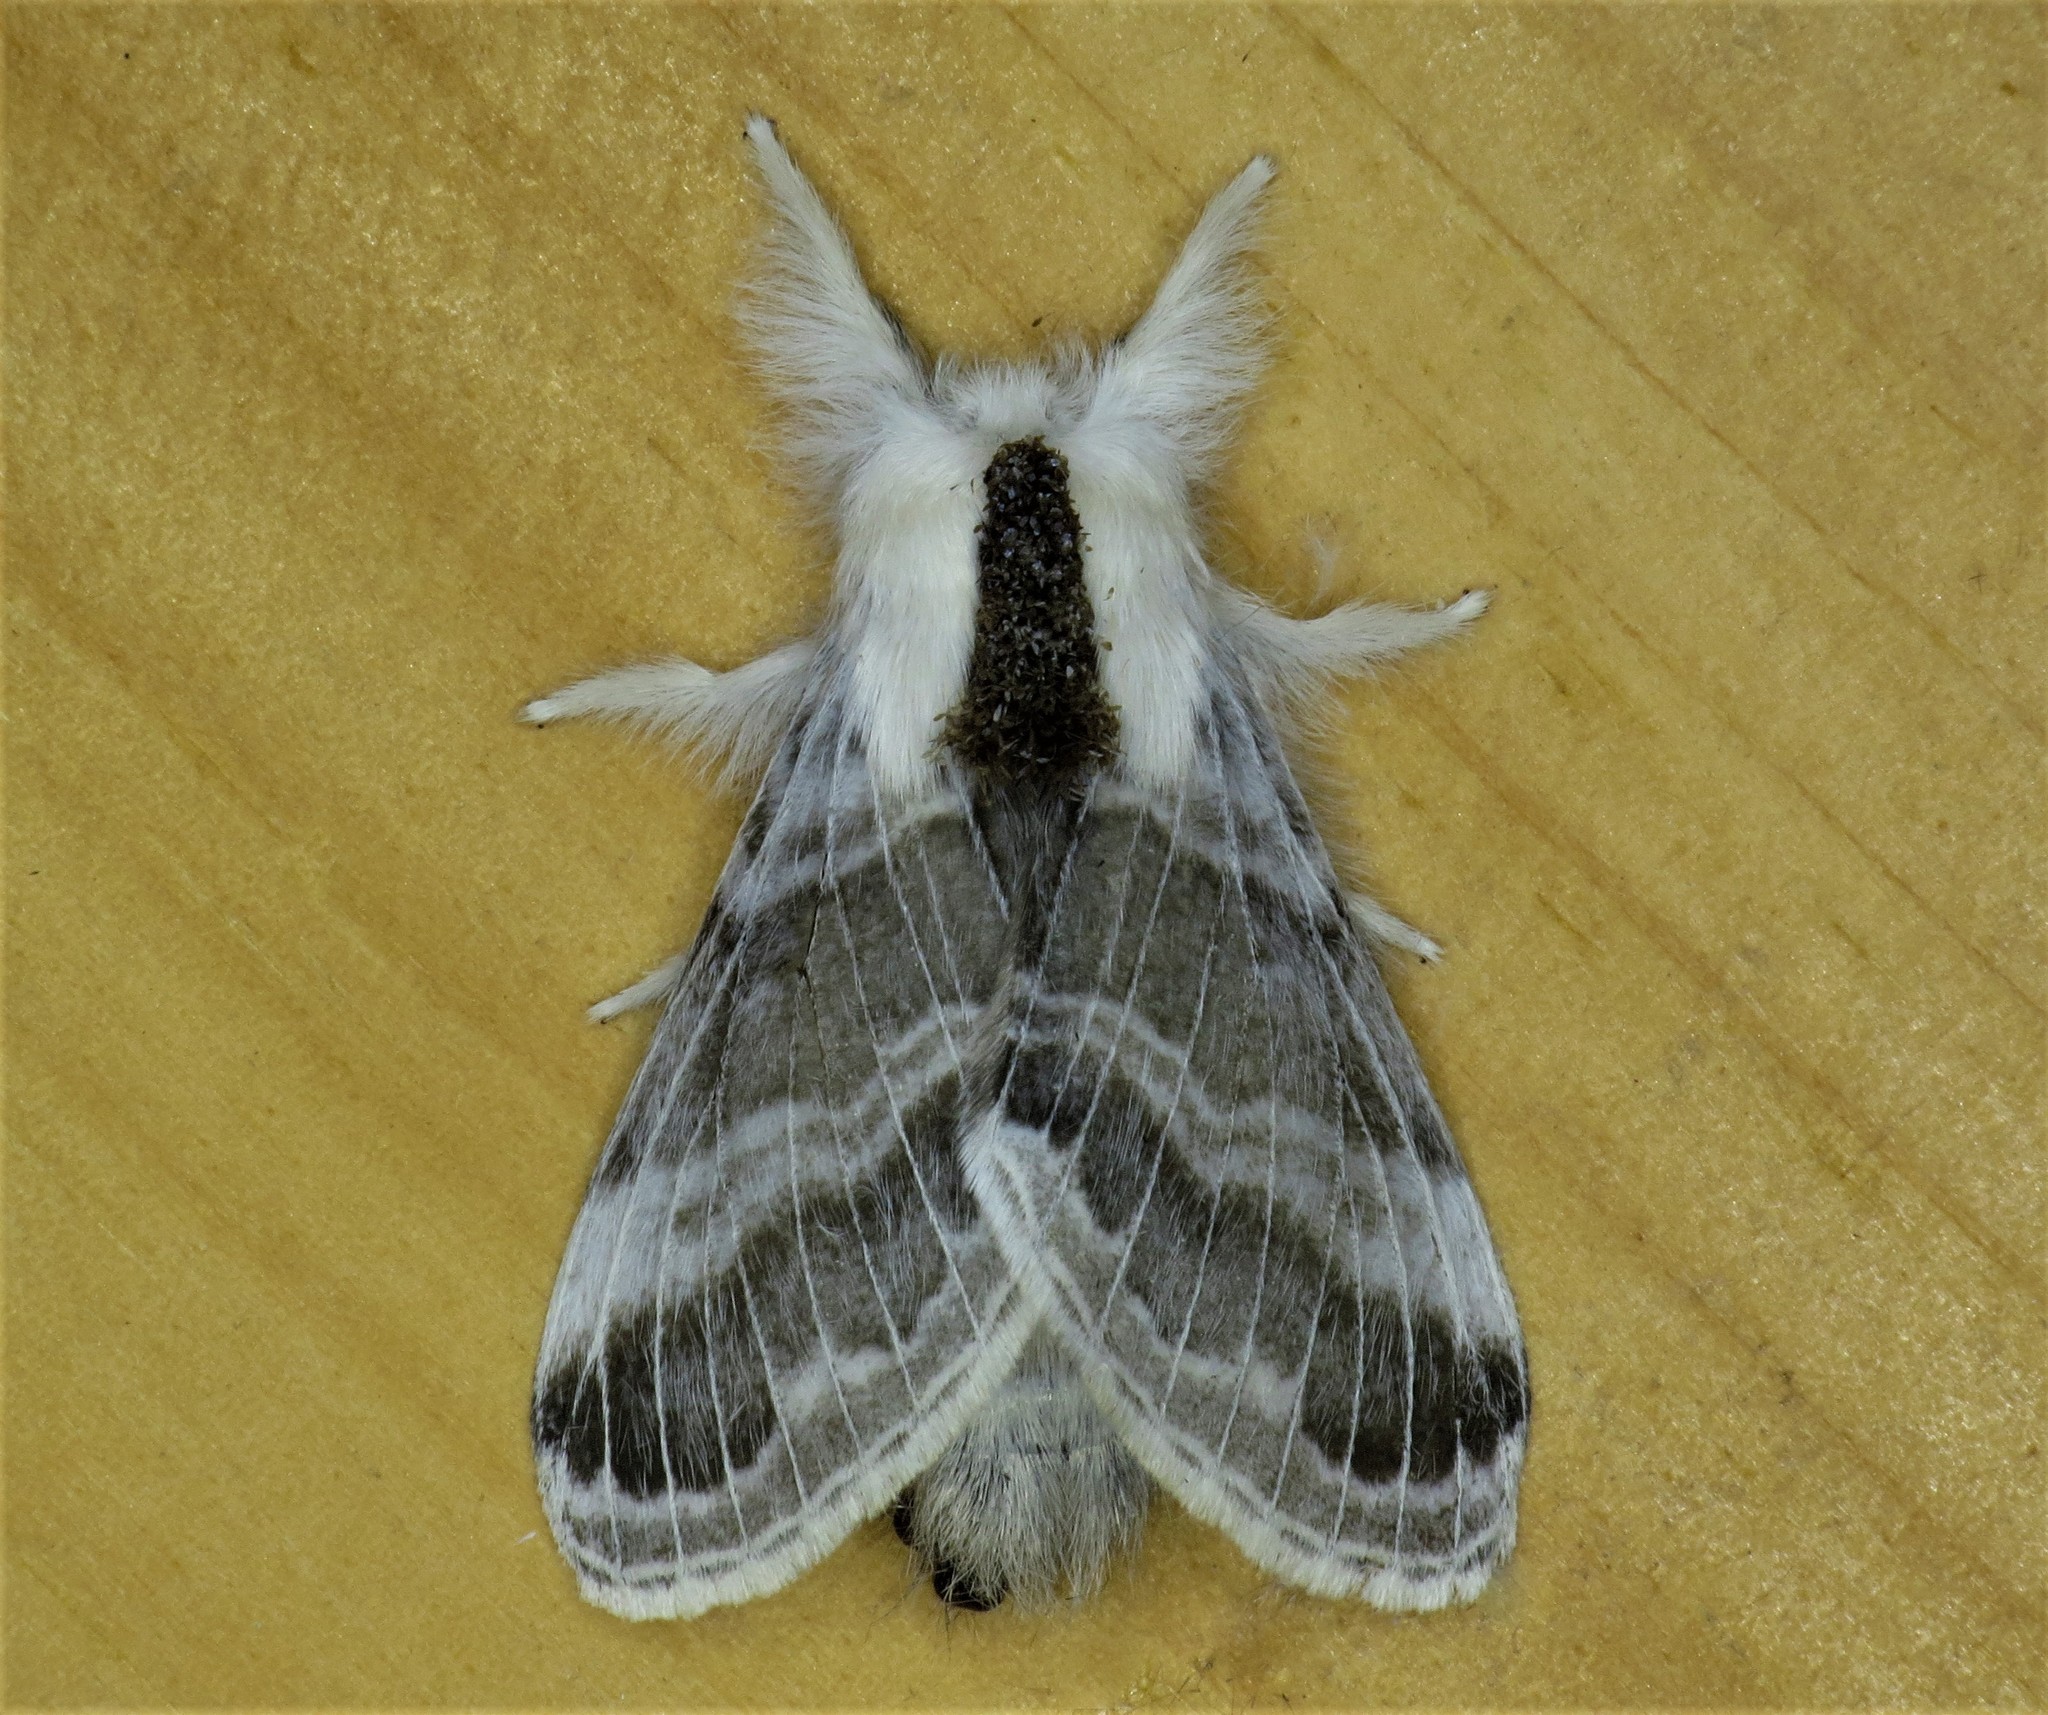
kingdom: Animalia
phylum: Arthropoda
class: Insecta
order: Lepidoptera
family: Lasiocampidae
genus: Tolype
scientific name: Tolype velleda
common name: Large tolype moth
